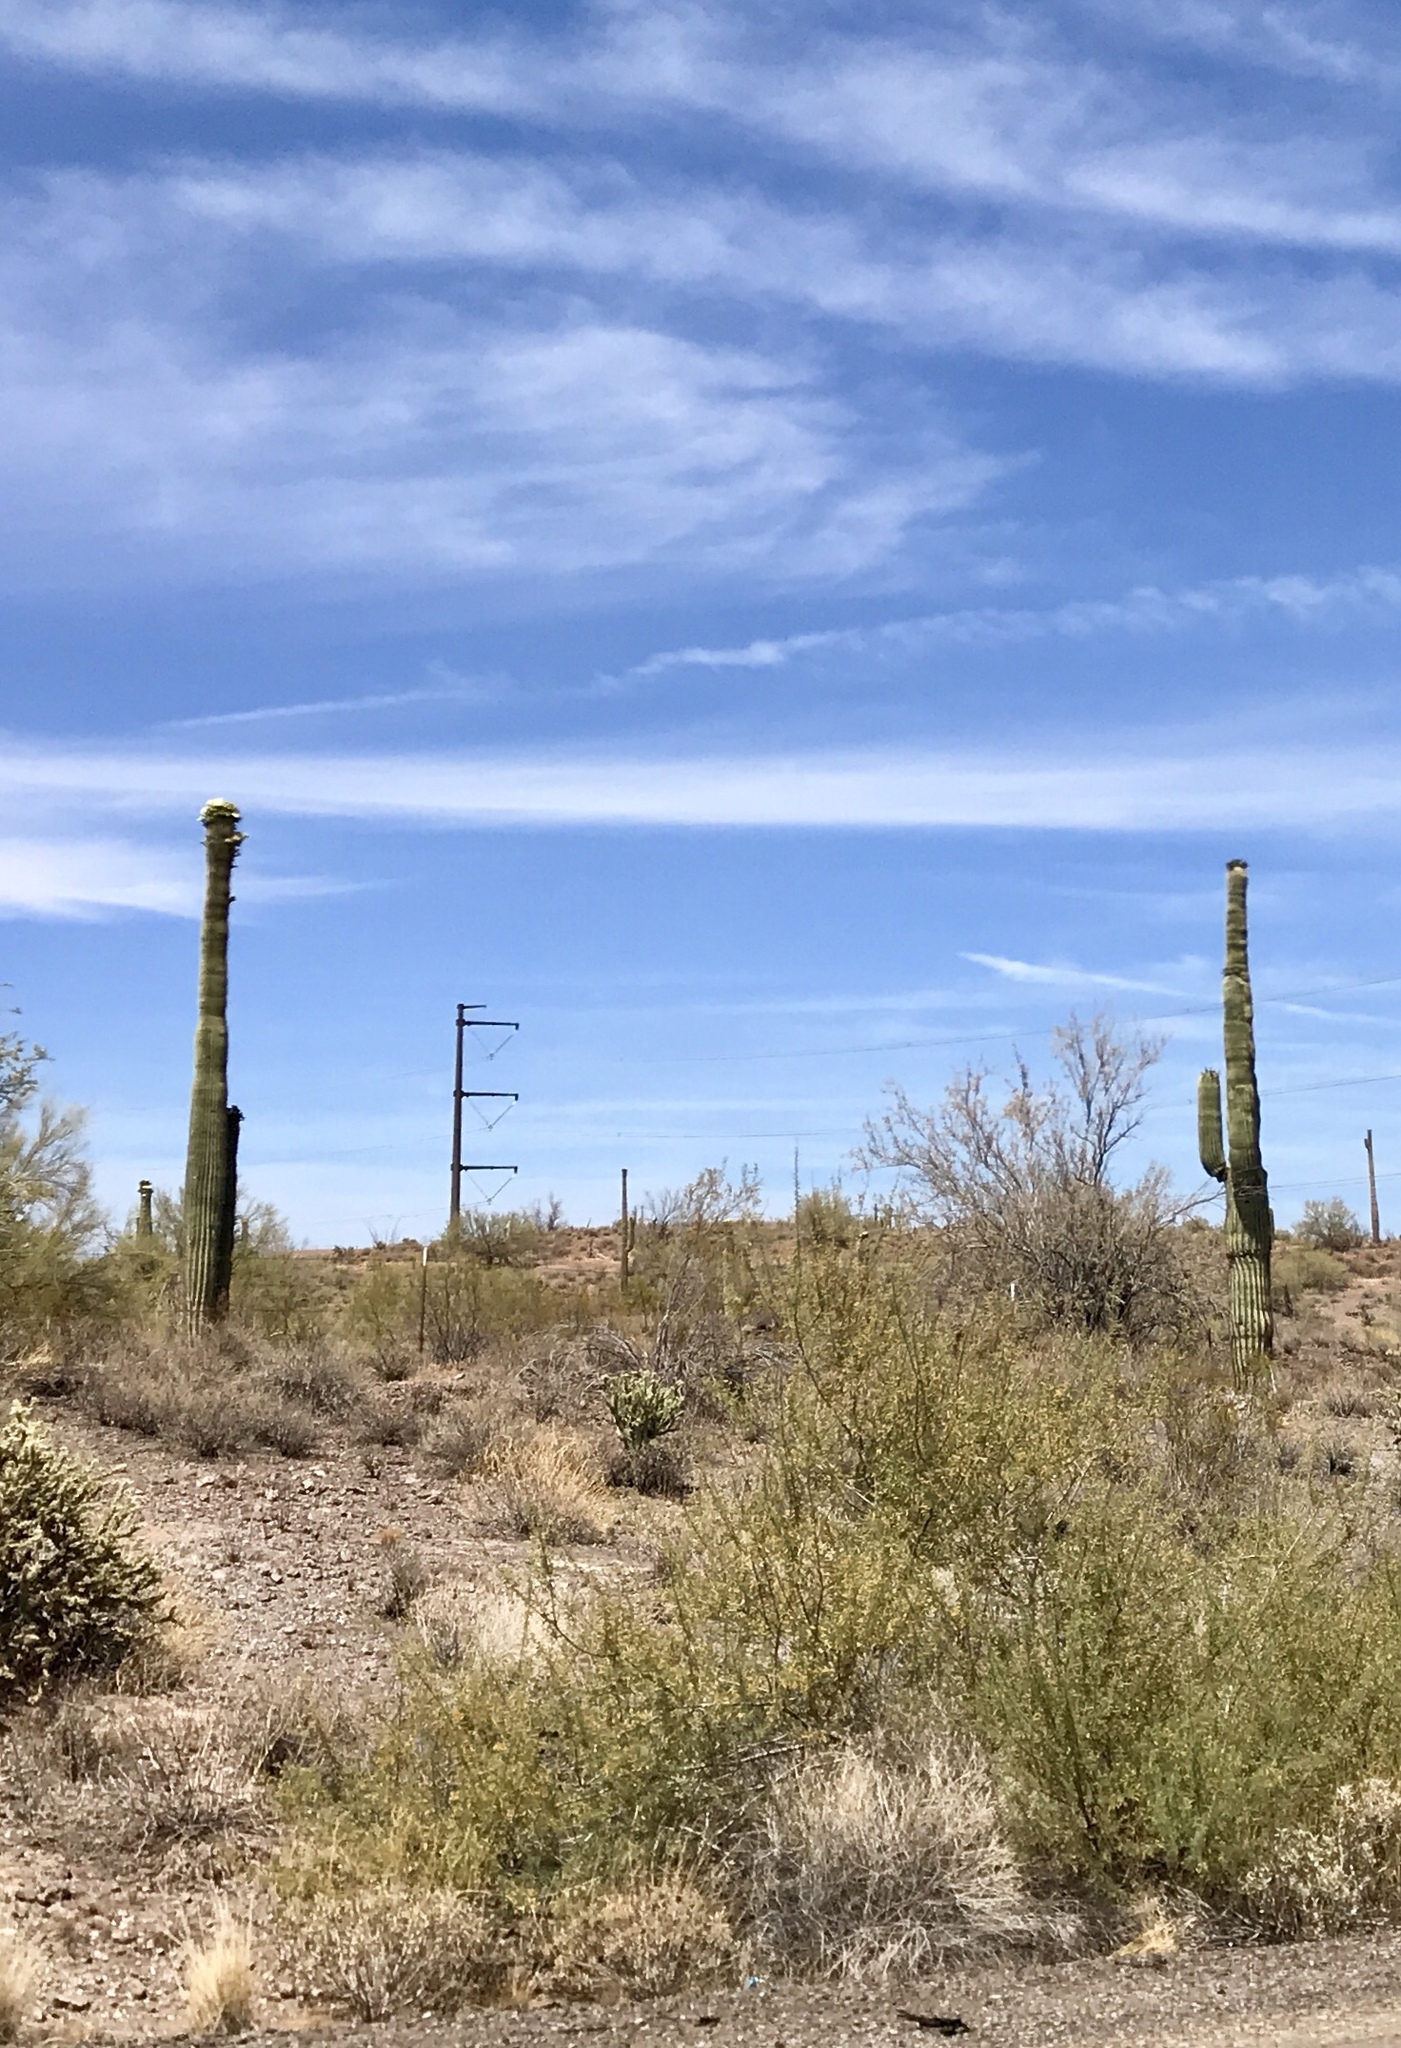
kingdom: Plantae
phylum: Tracheophyta
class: Magnoliopsida
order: Caryophyllales
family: Cactaceae
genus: Carnegiea
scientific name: Carnegiea gigantea
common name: Saguaro
